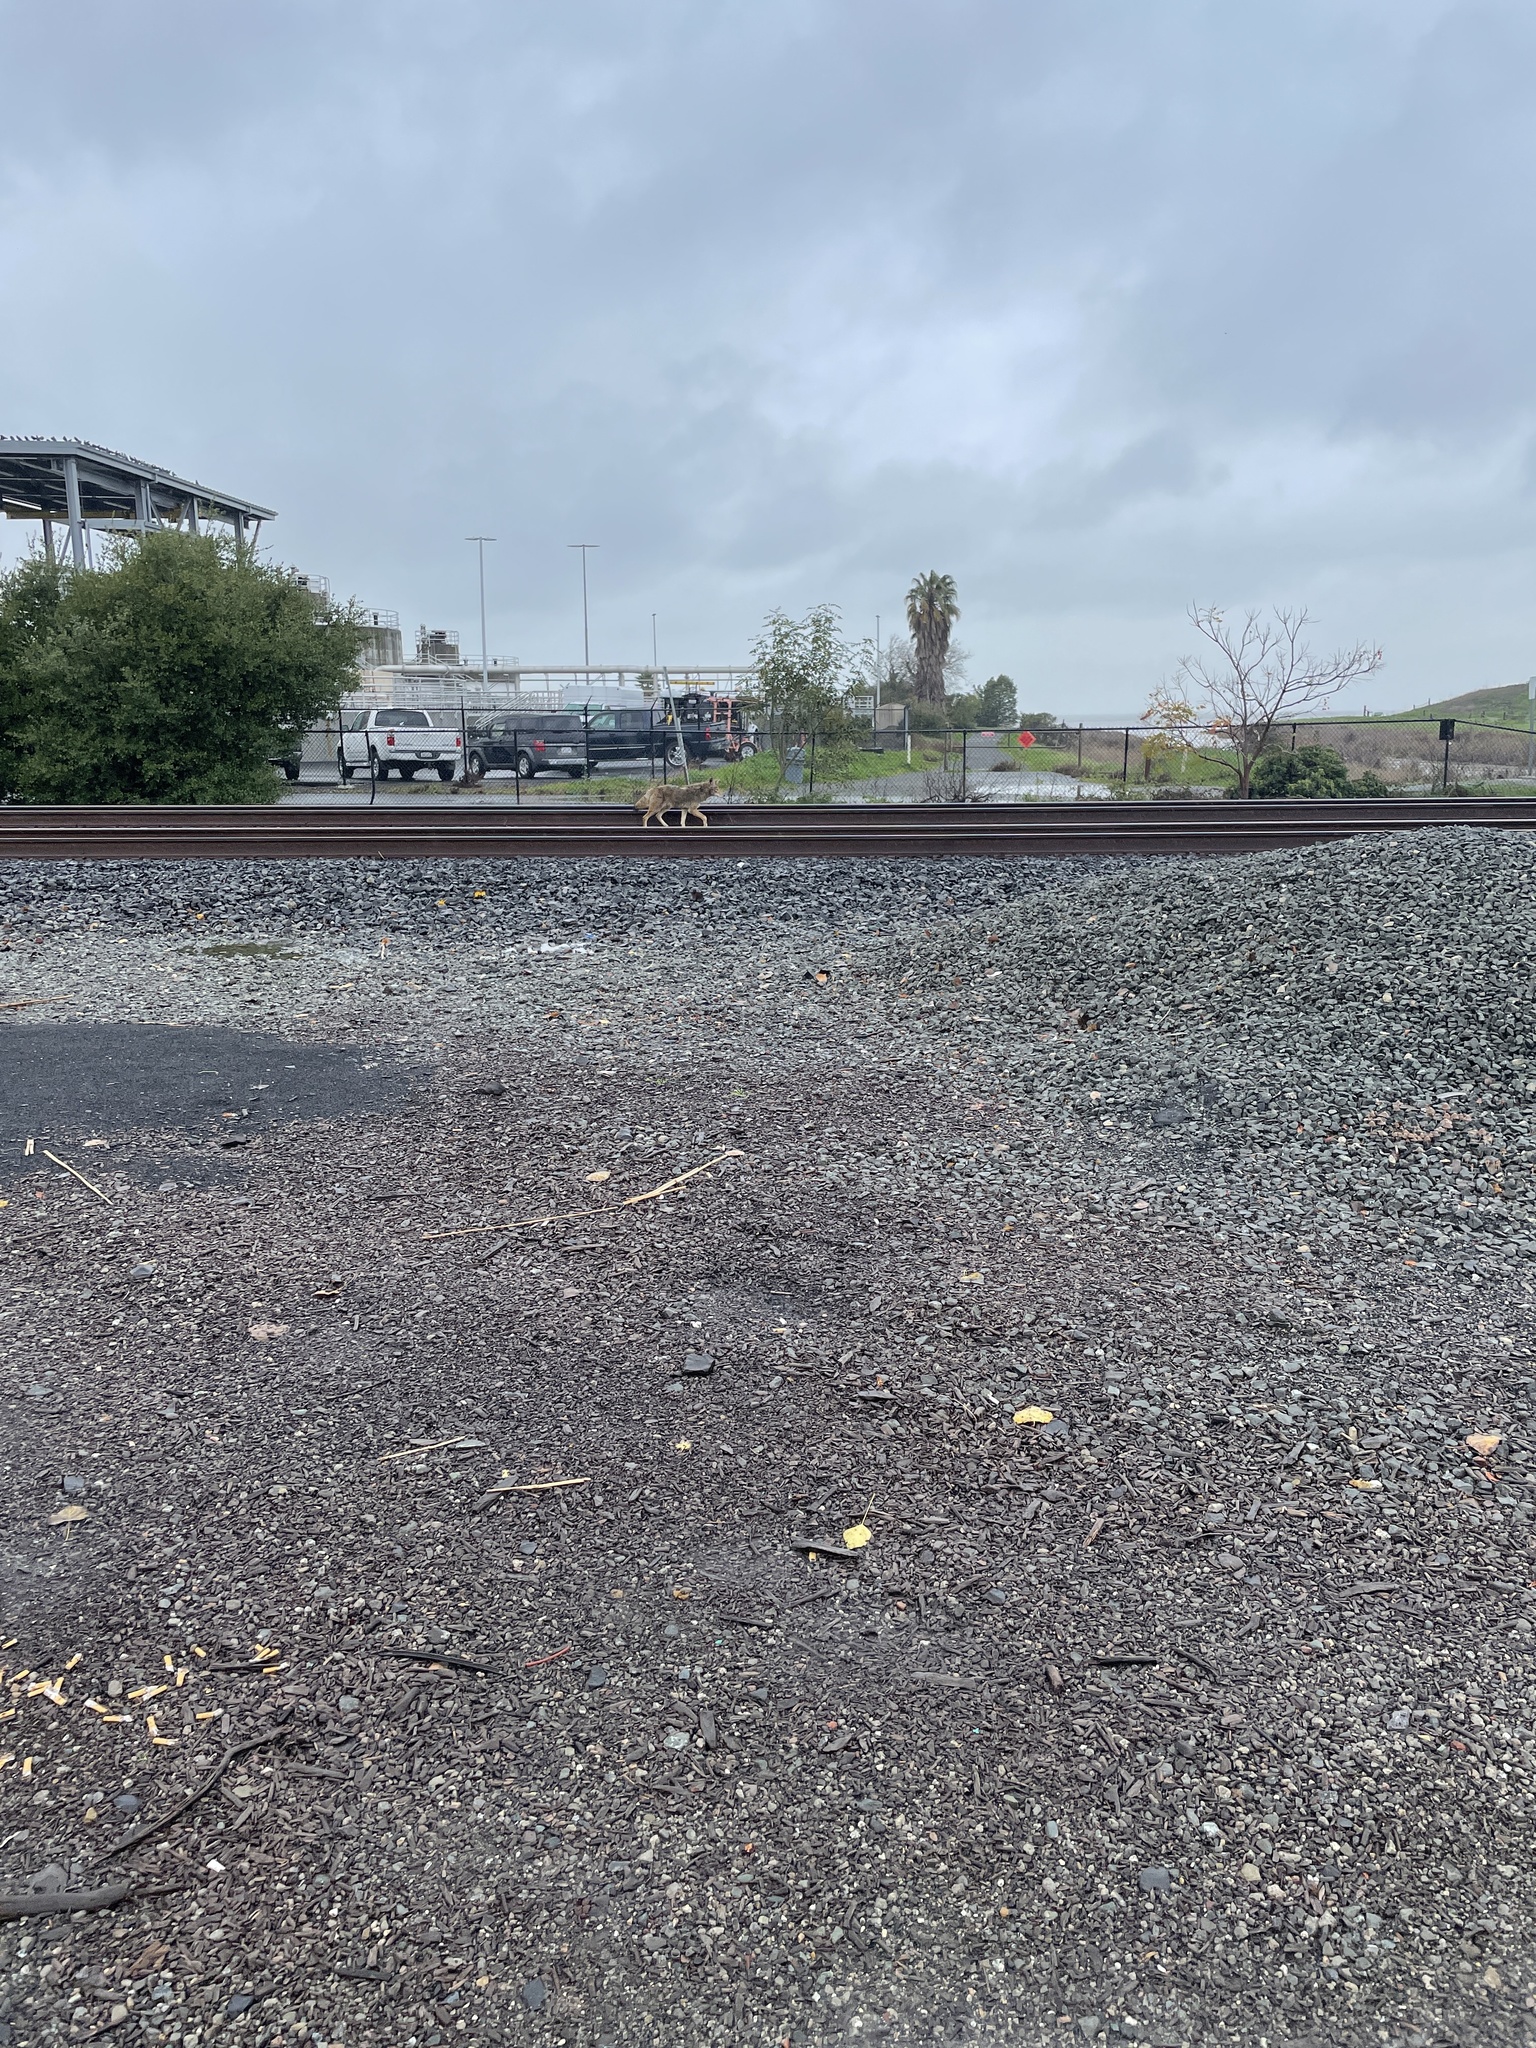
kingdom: Animalia
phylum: Chordata
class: Mammalia
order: Carnivora
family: Canidae
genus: Canis
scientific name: Canis latrans
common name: Coyote
